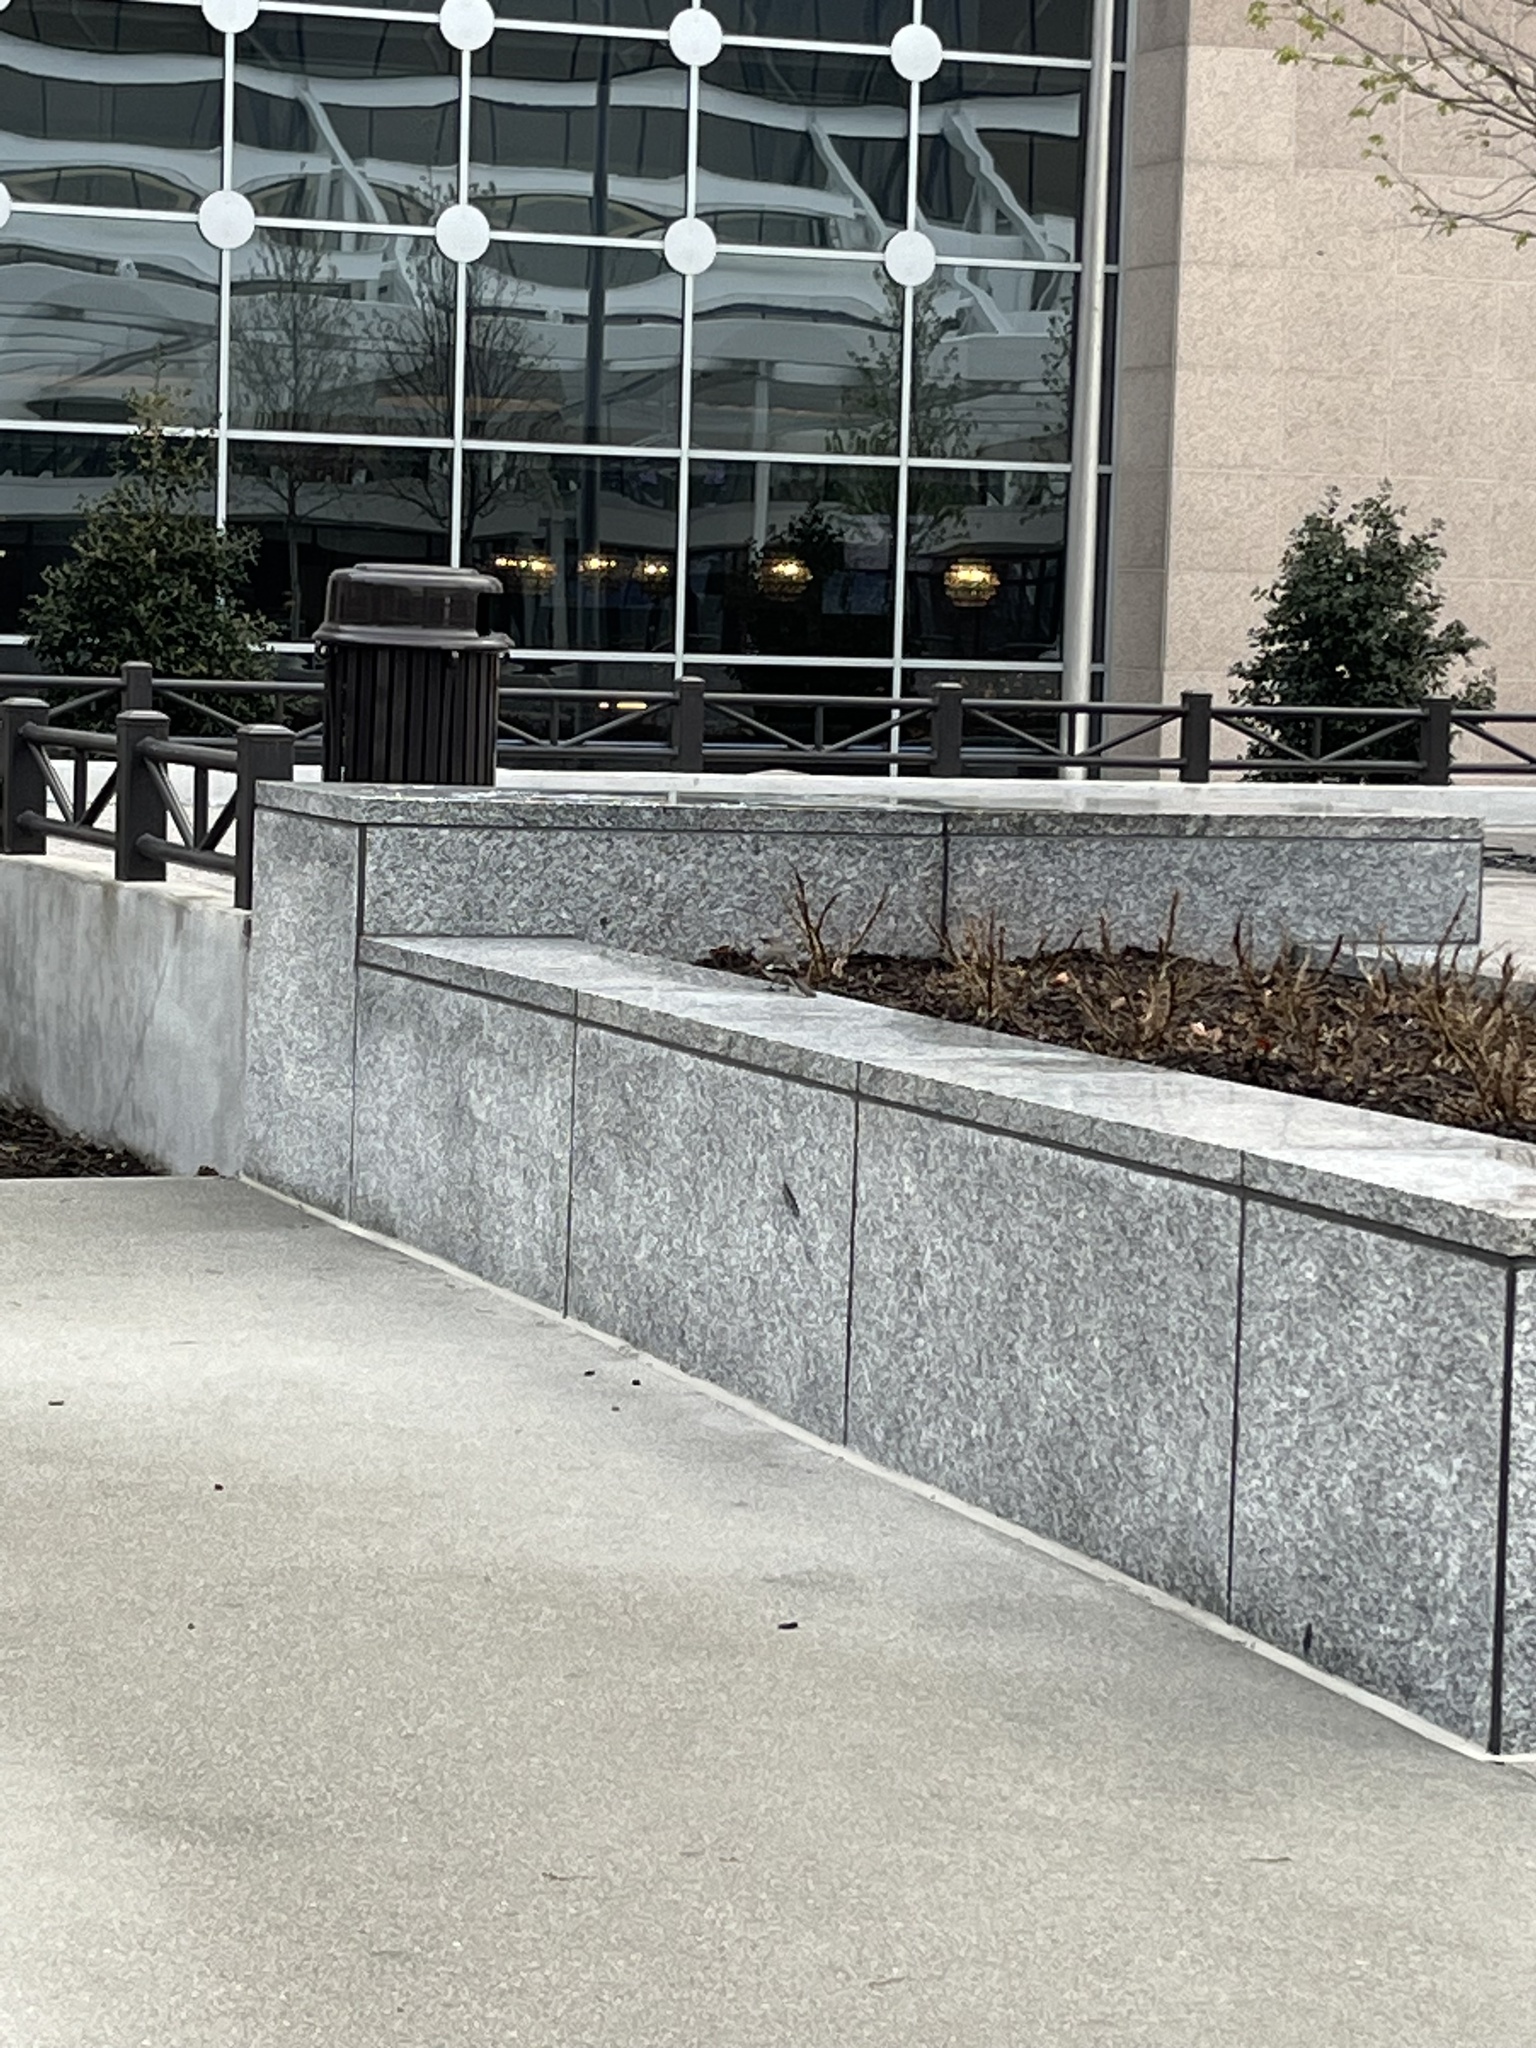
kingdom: Animalia
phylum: Chordata
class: Aves
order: Passeriformes
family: Mimidae
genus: Mimus
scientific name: Mimus polyglottos
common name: Northern mockingbird
